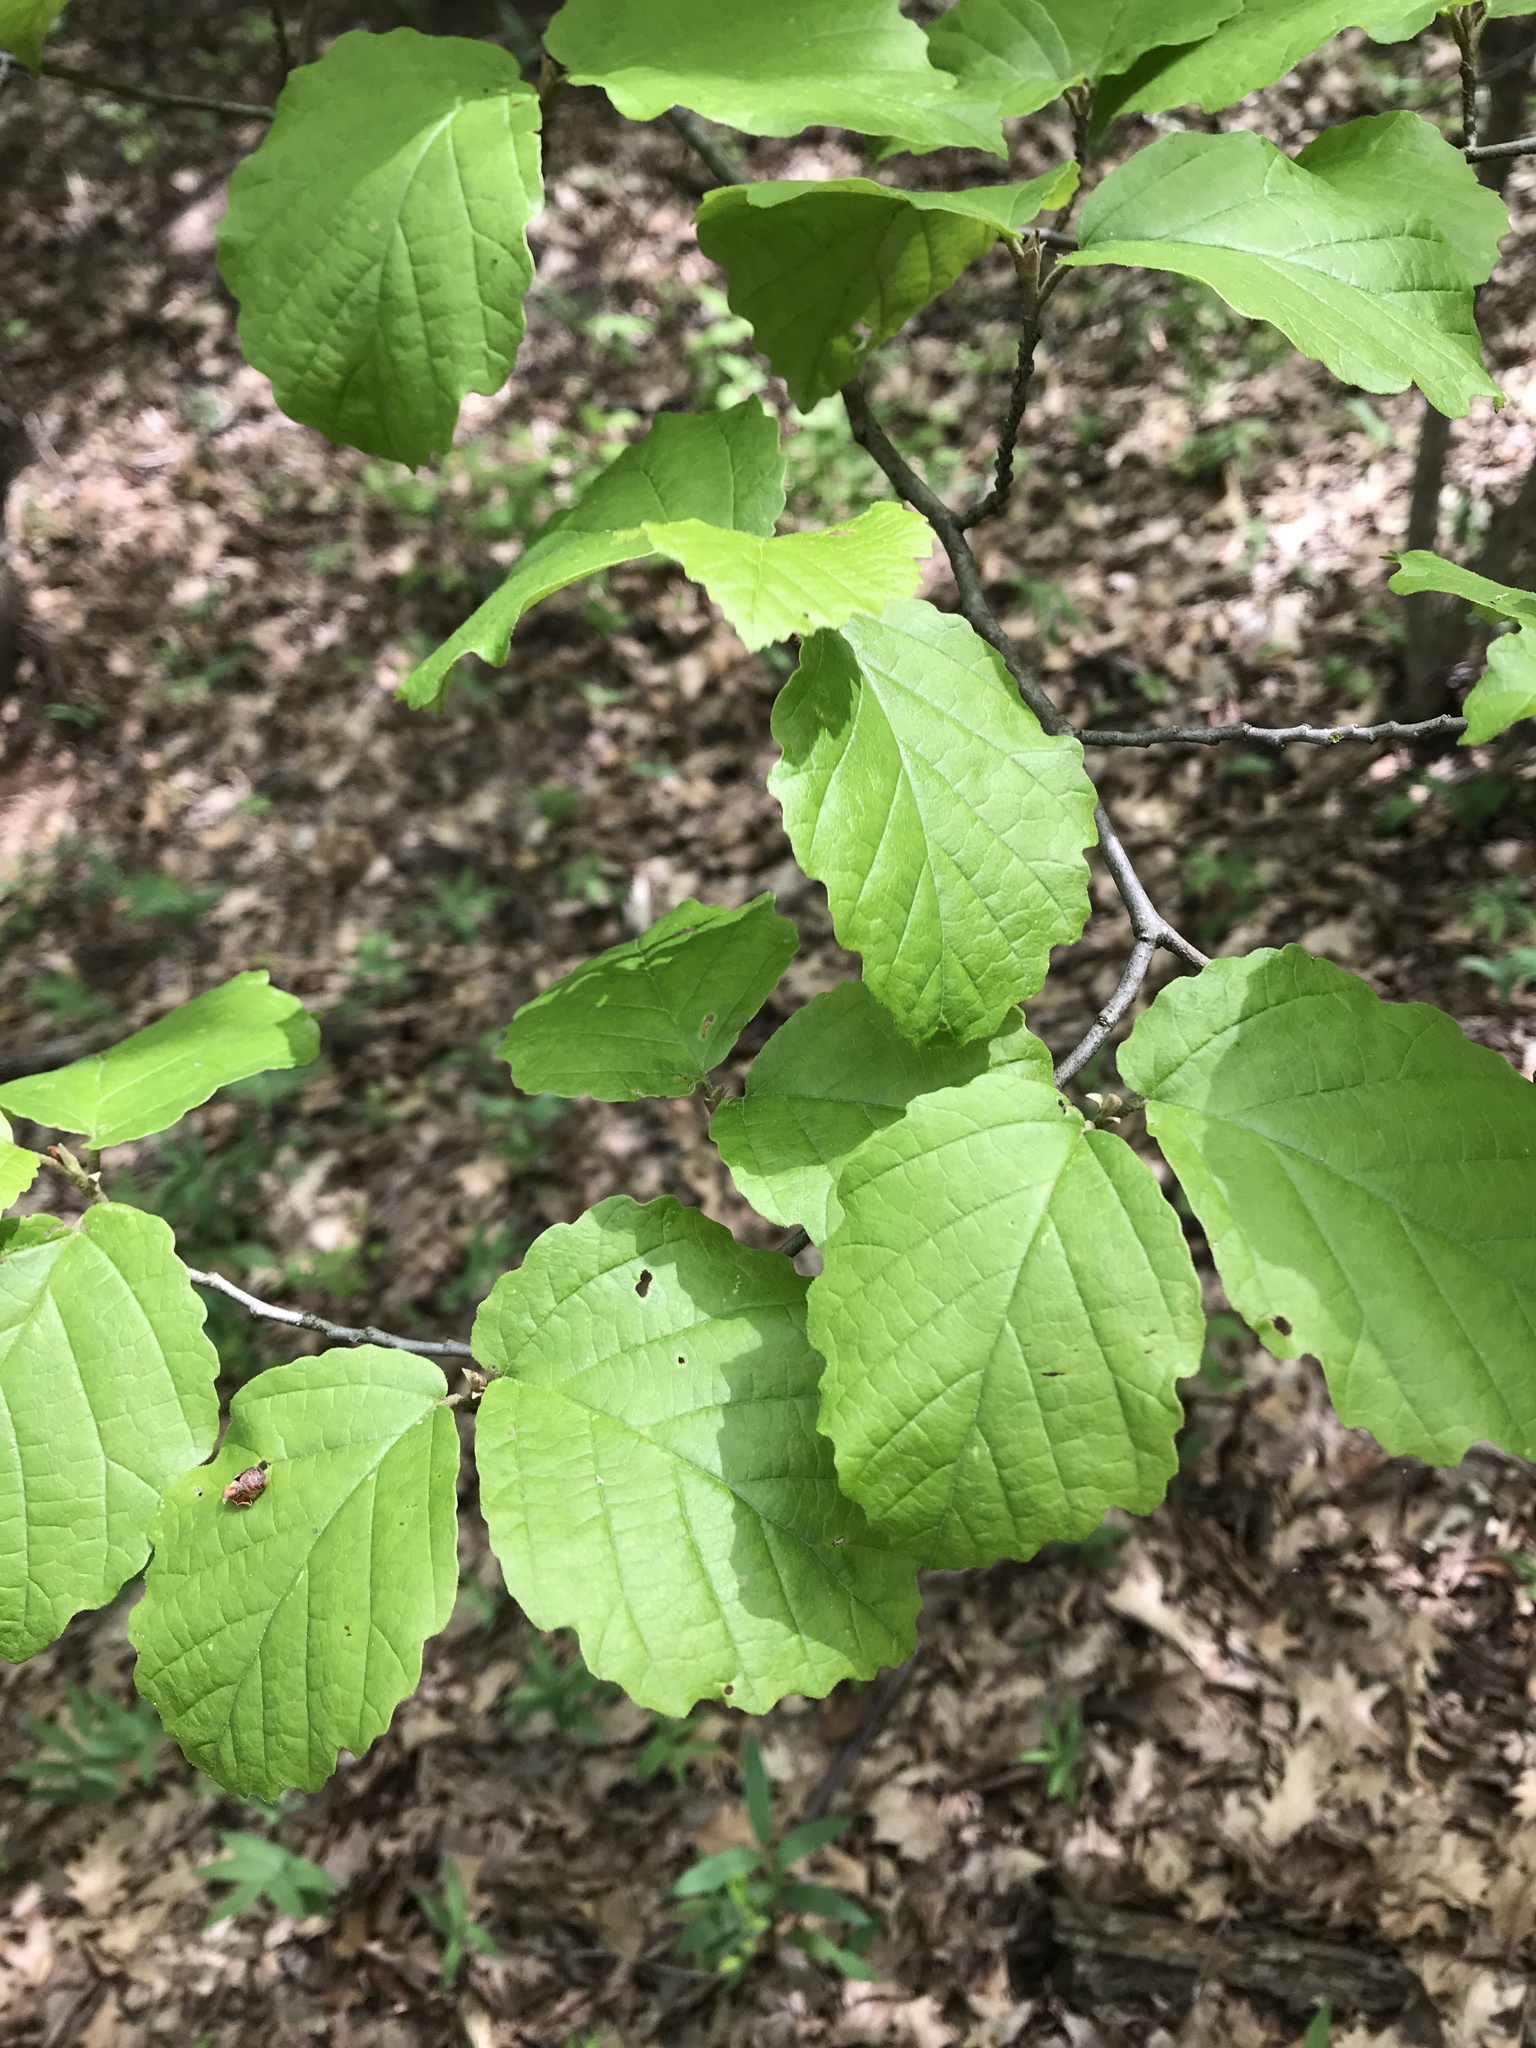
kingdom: Plantae
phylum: Tracheophyta
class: Magnoliopsida
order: Saxifragales
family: Hamamelidaceae
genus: Hamamelis
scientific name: Hamamelis virginiana
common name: Witch-hazel
